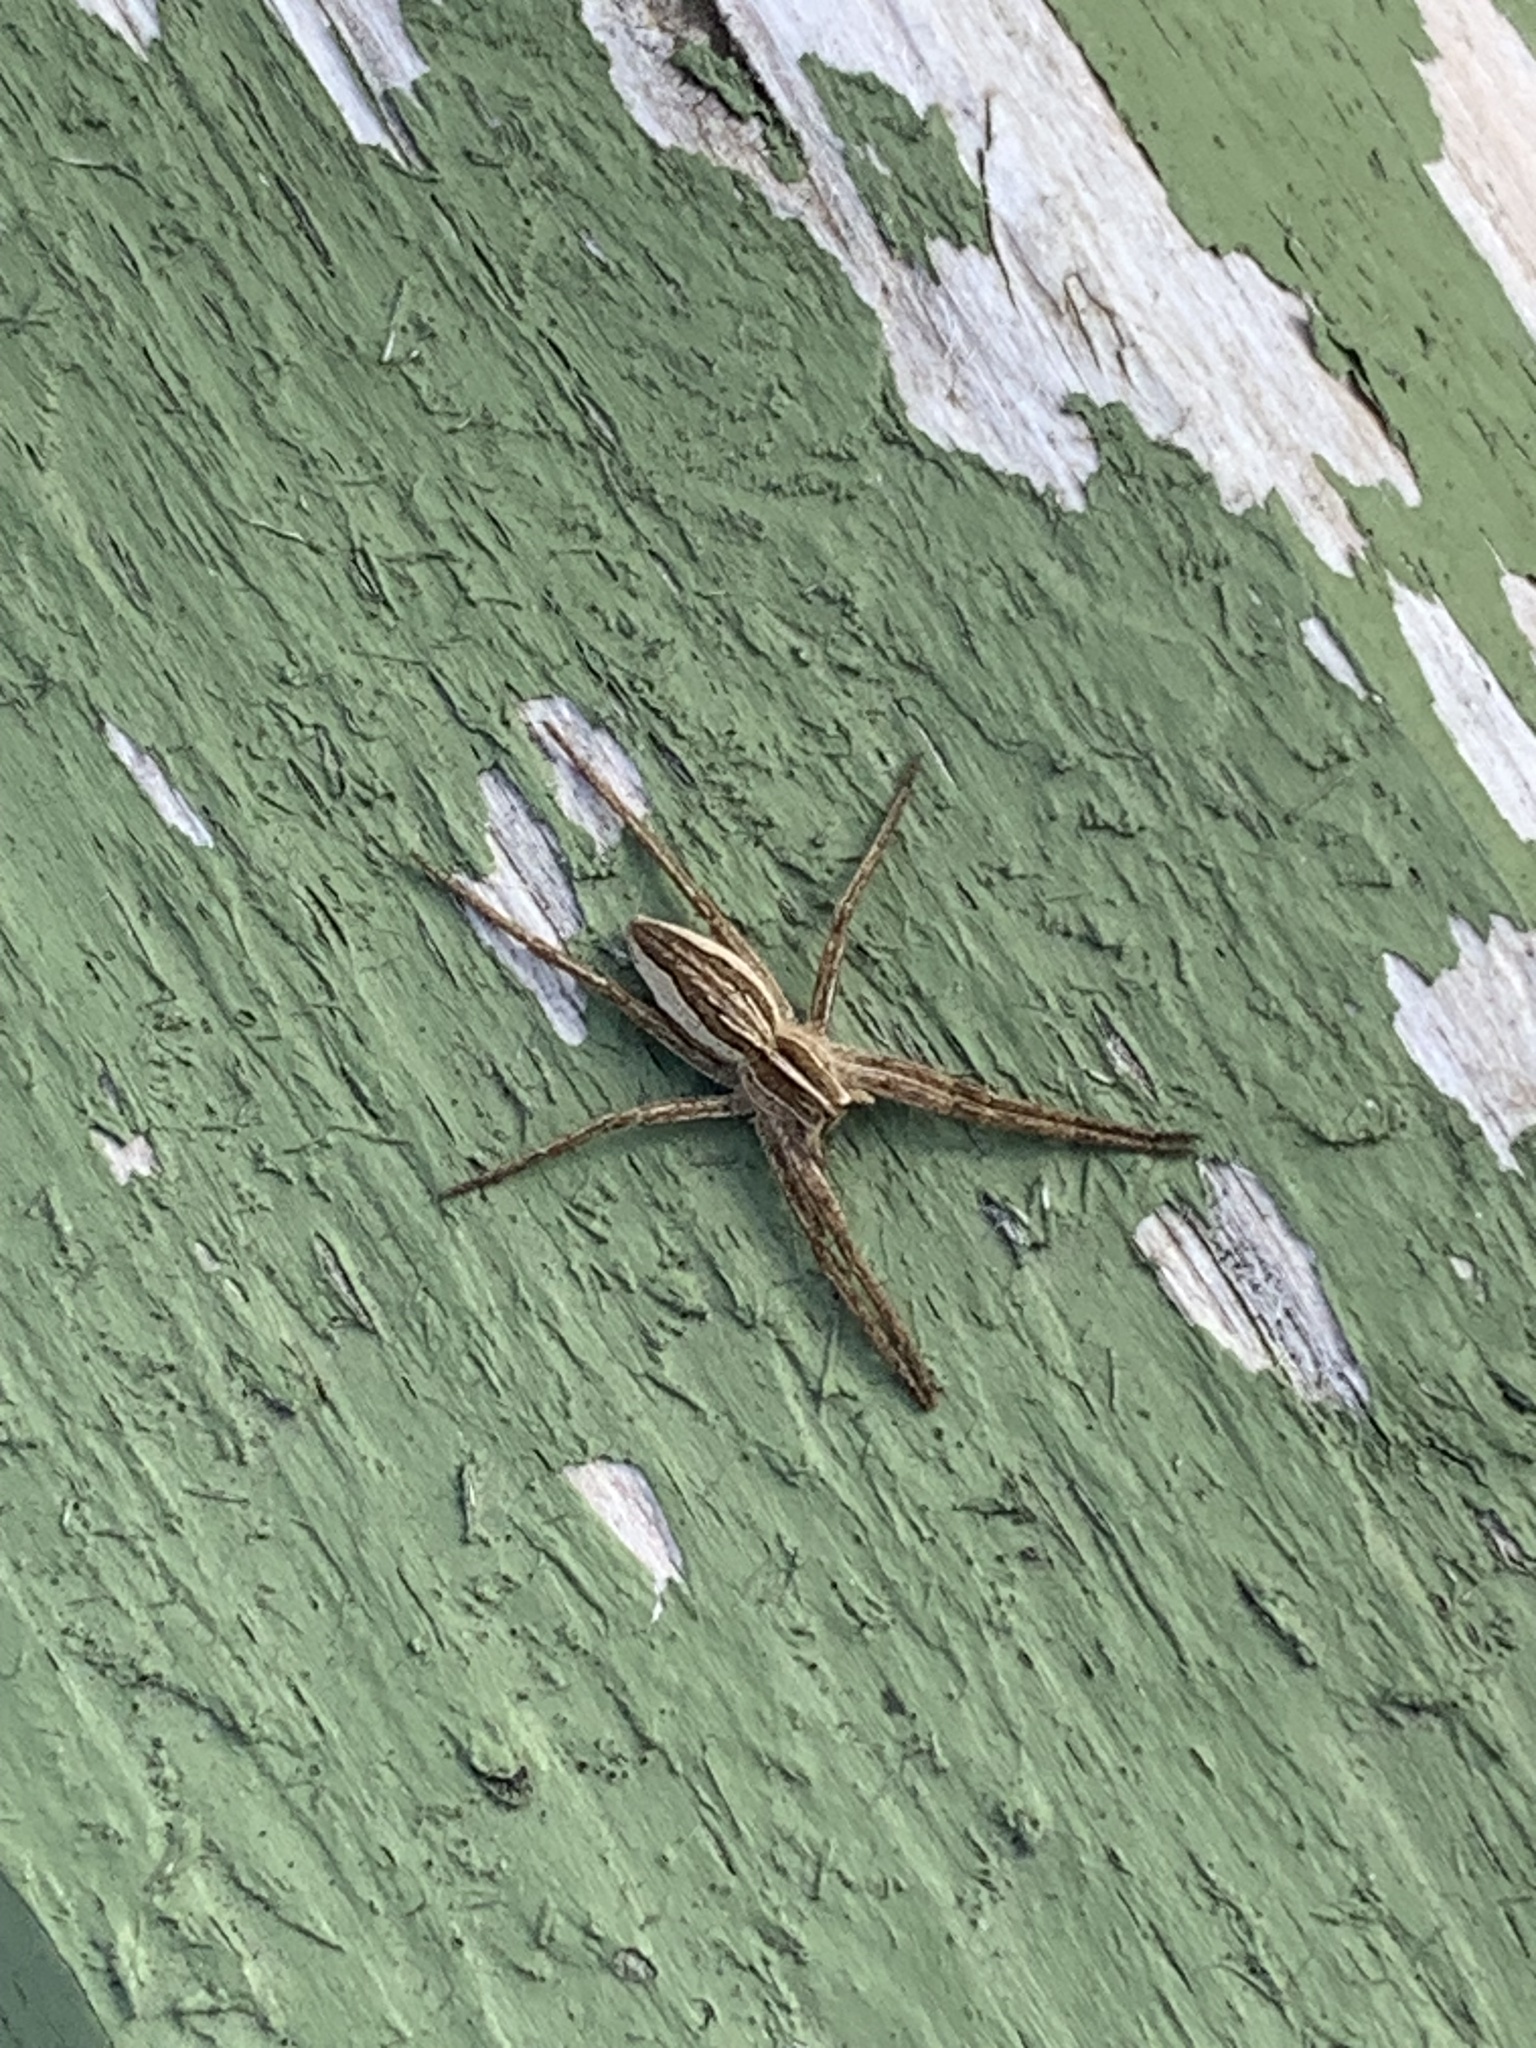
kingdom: Animalia
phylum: Arthropoda
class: Arachnida
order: Araneae
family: Pisauridae
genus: Pisaura
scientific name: Pisaura mirabilis
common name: Tent spider
